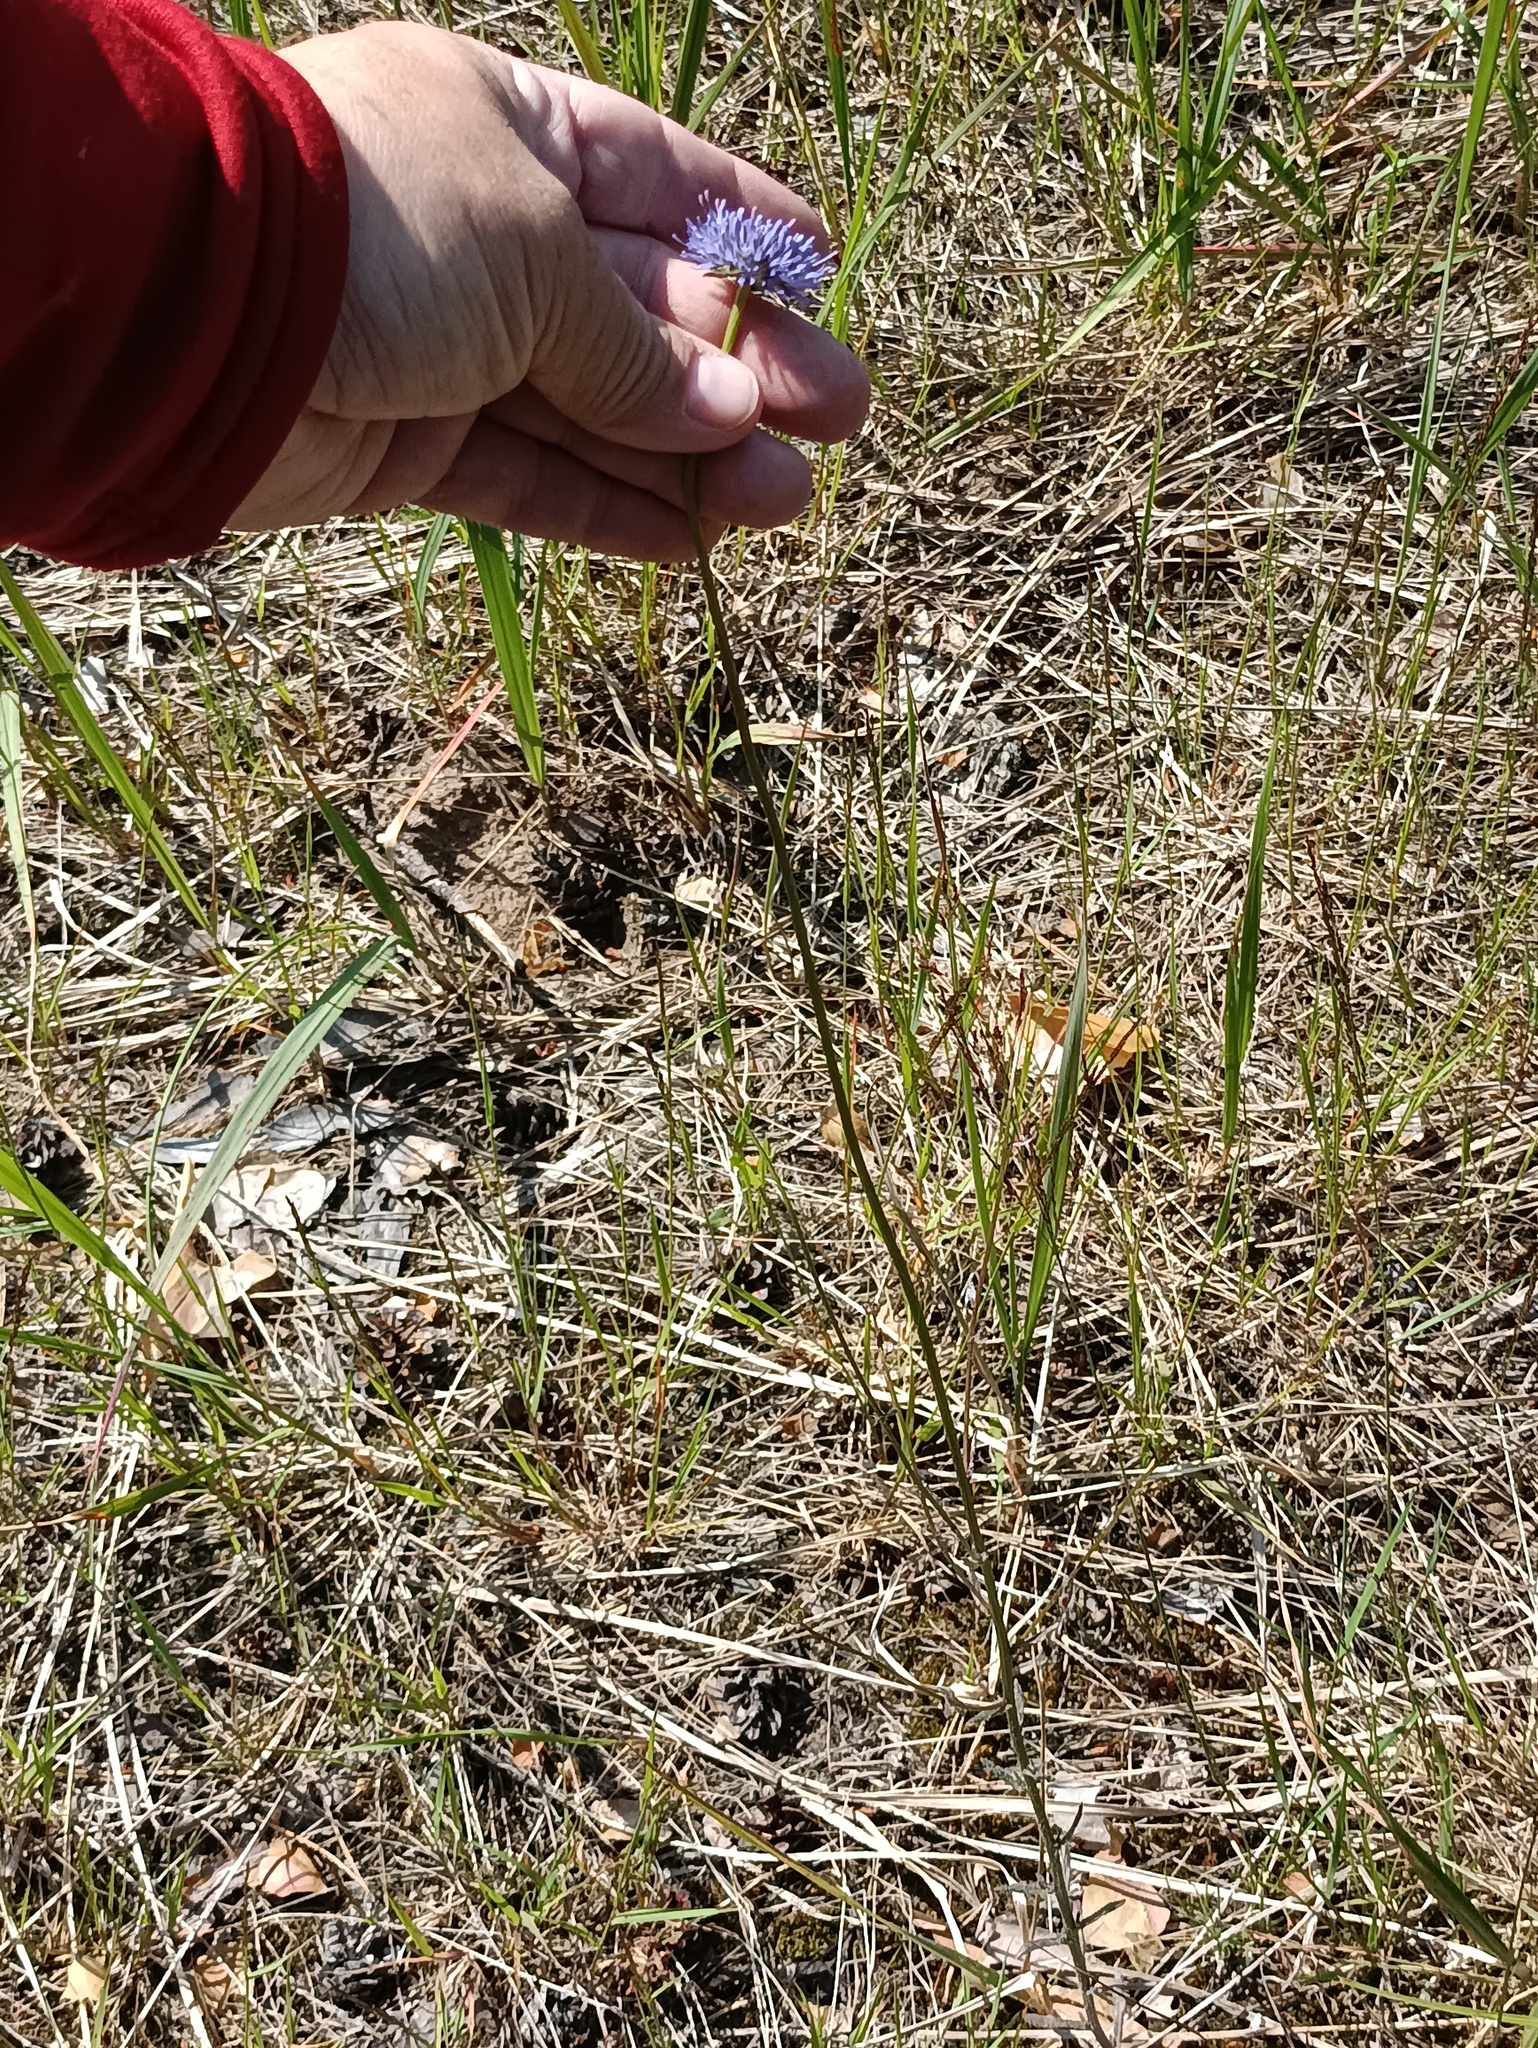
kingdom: Plantae
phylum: Tracheophyta
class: Magnoliopsida
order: Asterales
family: Campanulaceae
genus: Jasione
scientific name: Jasione montana
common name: Sheep's-bit
